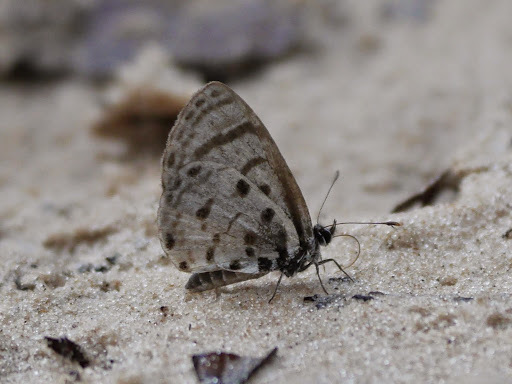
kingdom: Animalia
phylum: Arthropoda
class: Insecta
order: Lepidoptera
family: Lycaenidae
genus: Azanus
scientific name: Azanus moriqua
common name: Thorn-tree babul blue
